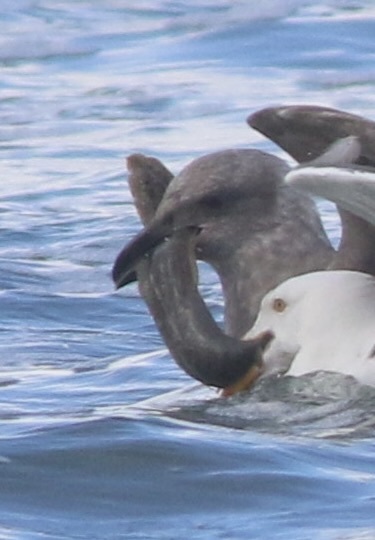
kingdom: Animalia
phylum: Chordata
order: Perciformes
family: Stichaeidae
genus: Cebidichthys
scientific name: Cebidichthys violaceus
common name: Monkeyface prickleback
